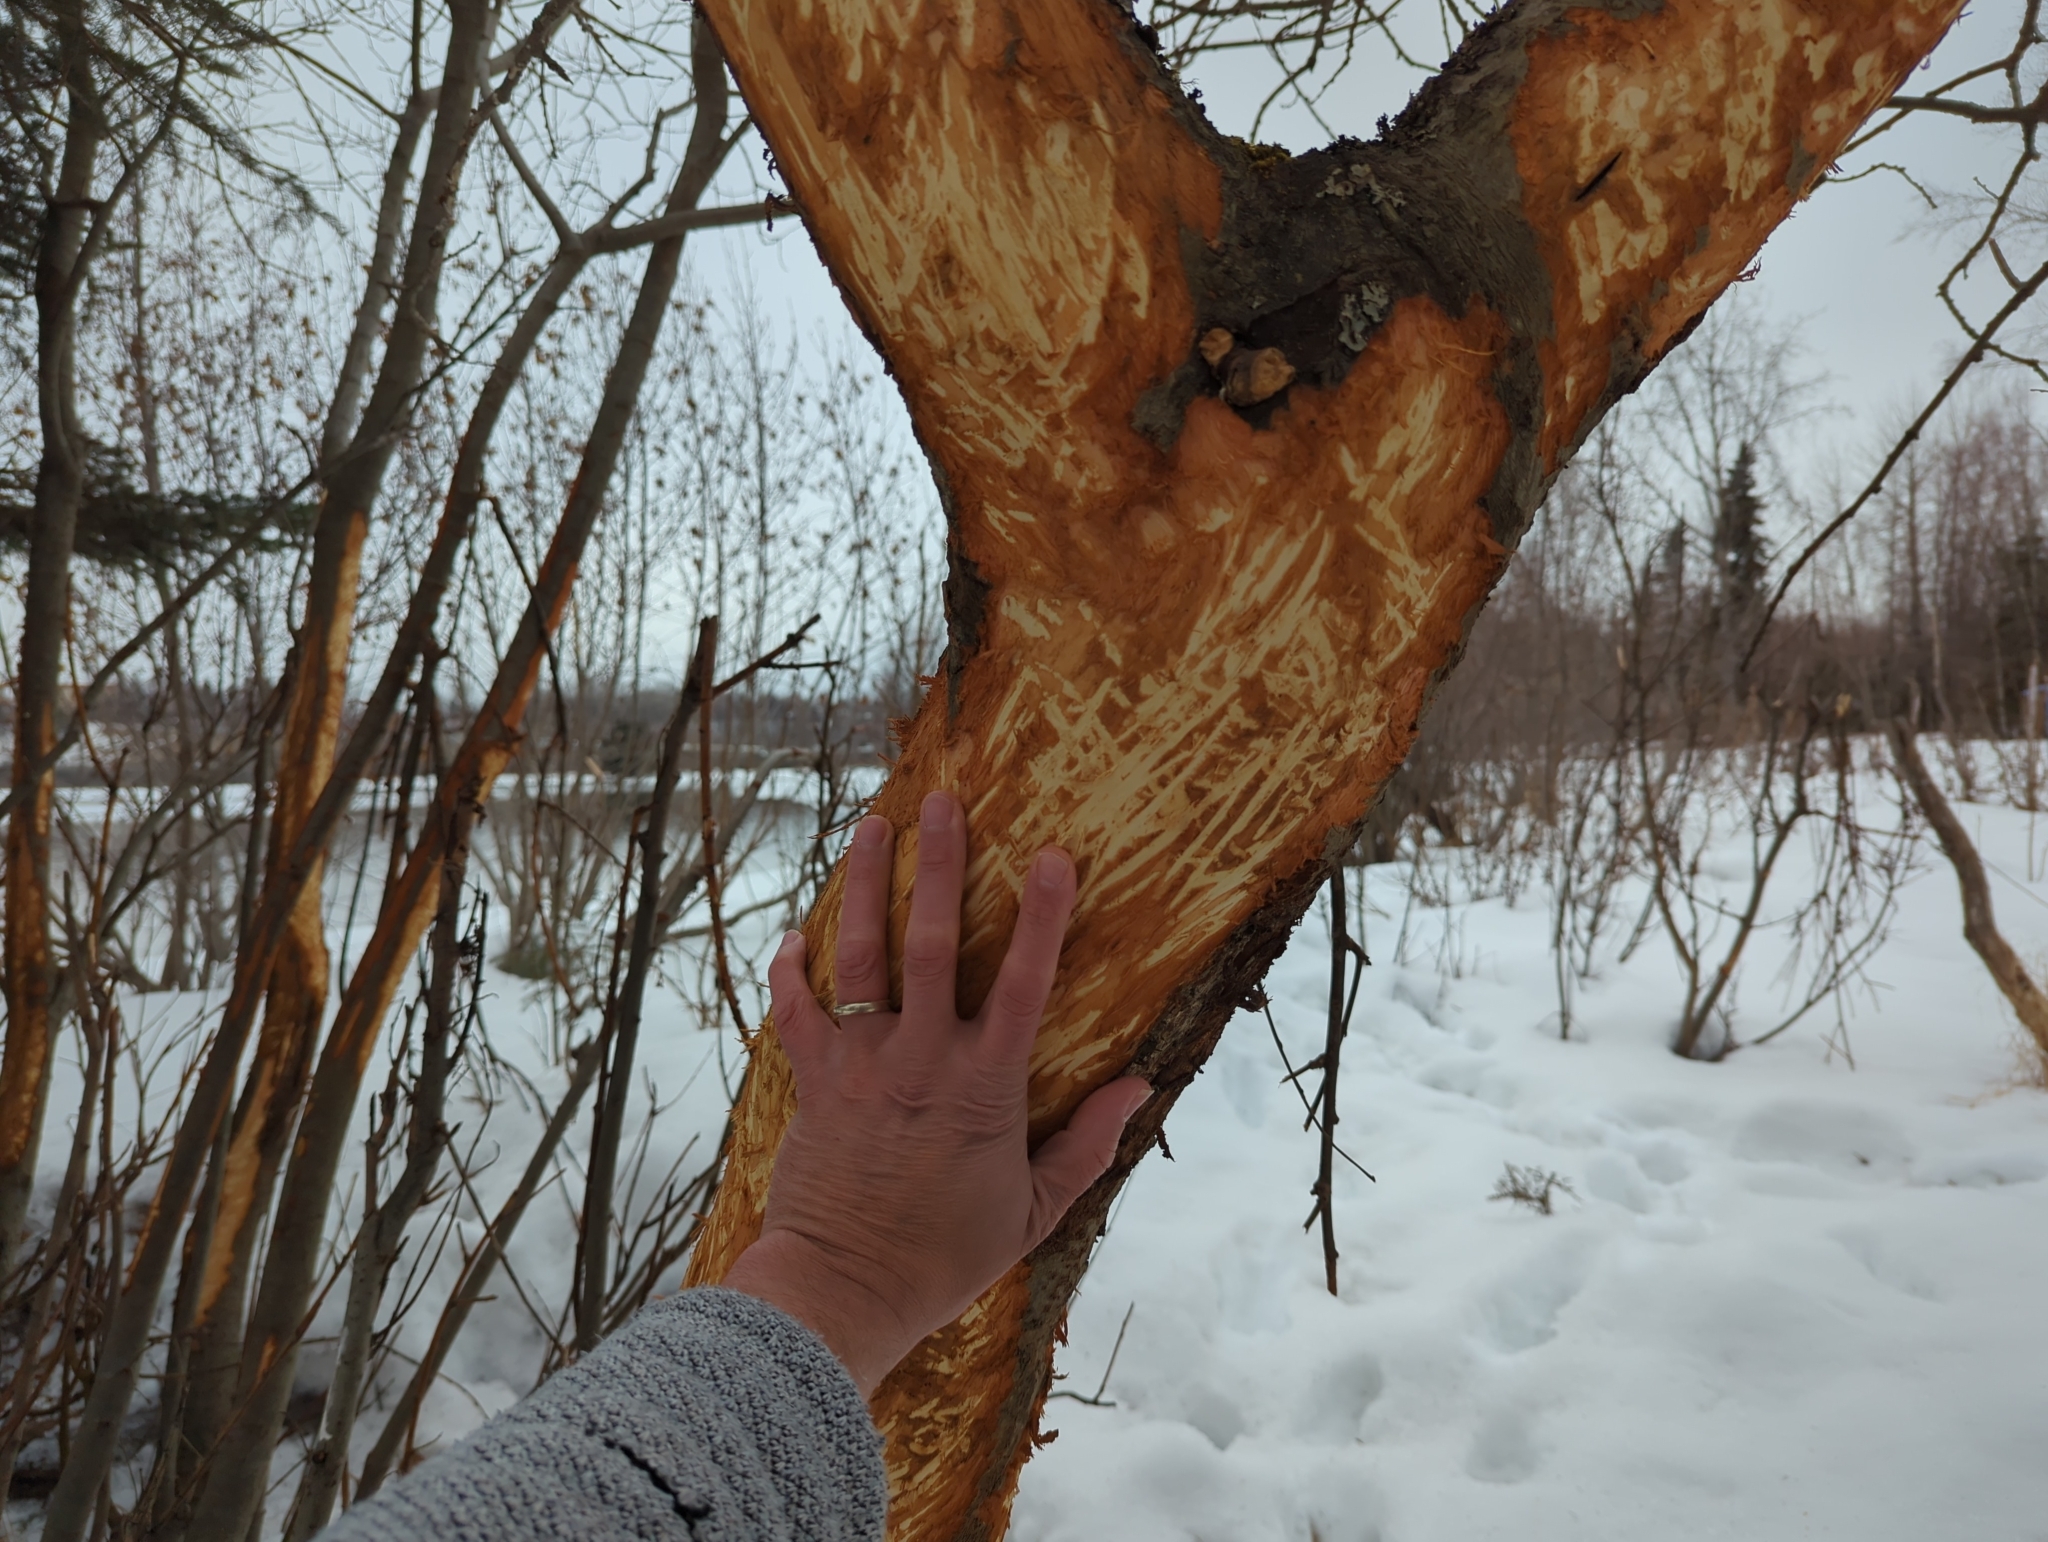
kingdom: Animalia
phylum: Chordata
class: Mammalia
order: Artiodactyla
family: Cervidae
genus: Alces
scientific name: Alces alces
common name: Moose
